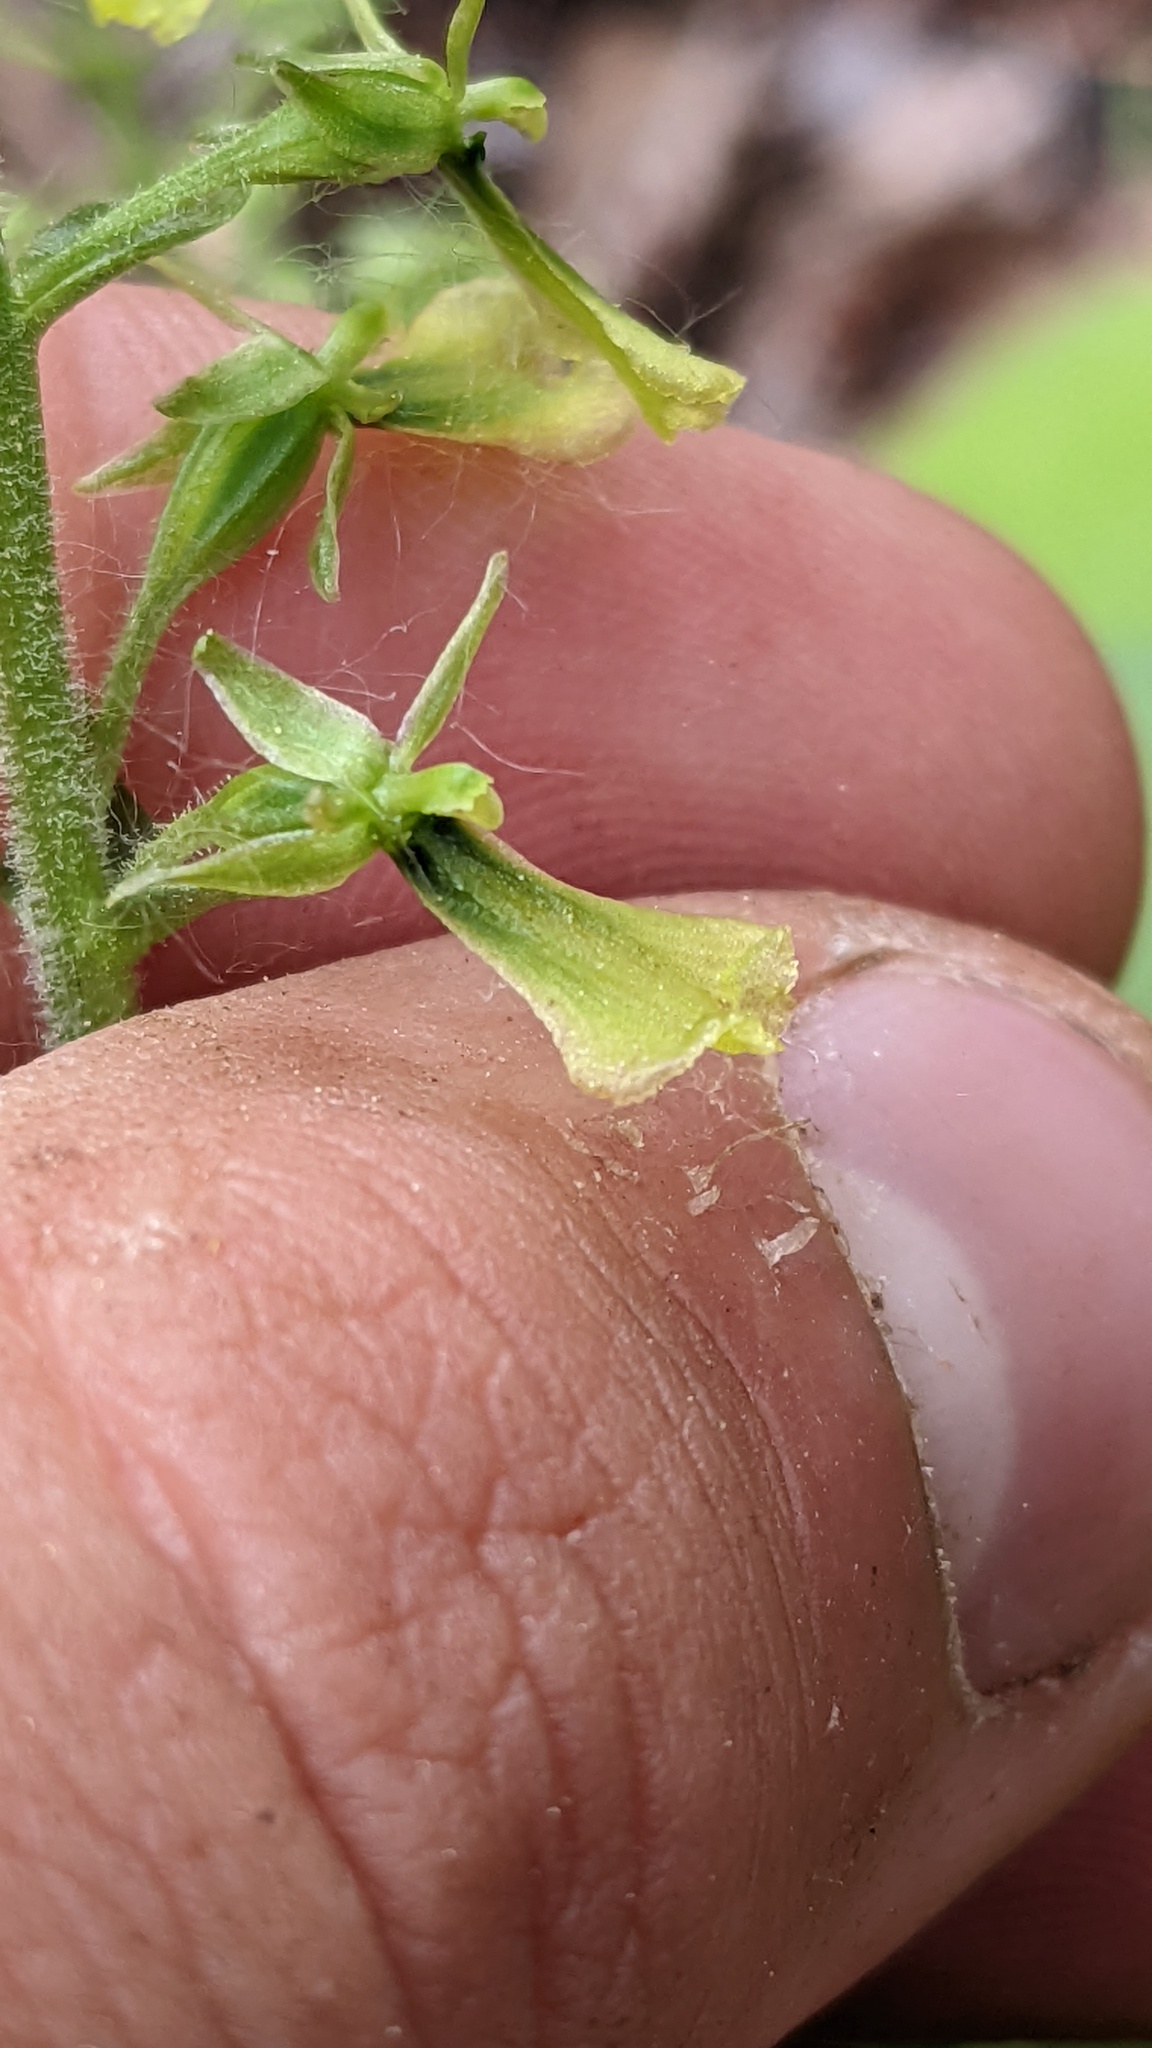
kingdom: Plantae
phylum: Tracheophyta
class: Liliopsida
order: Asparagales
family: Orchidaceae
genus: Neottia
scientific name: Neottia banksiana
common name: Northwestern twayblade
